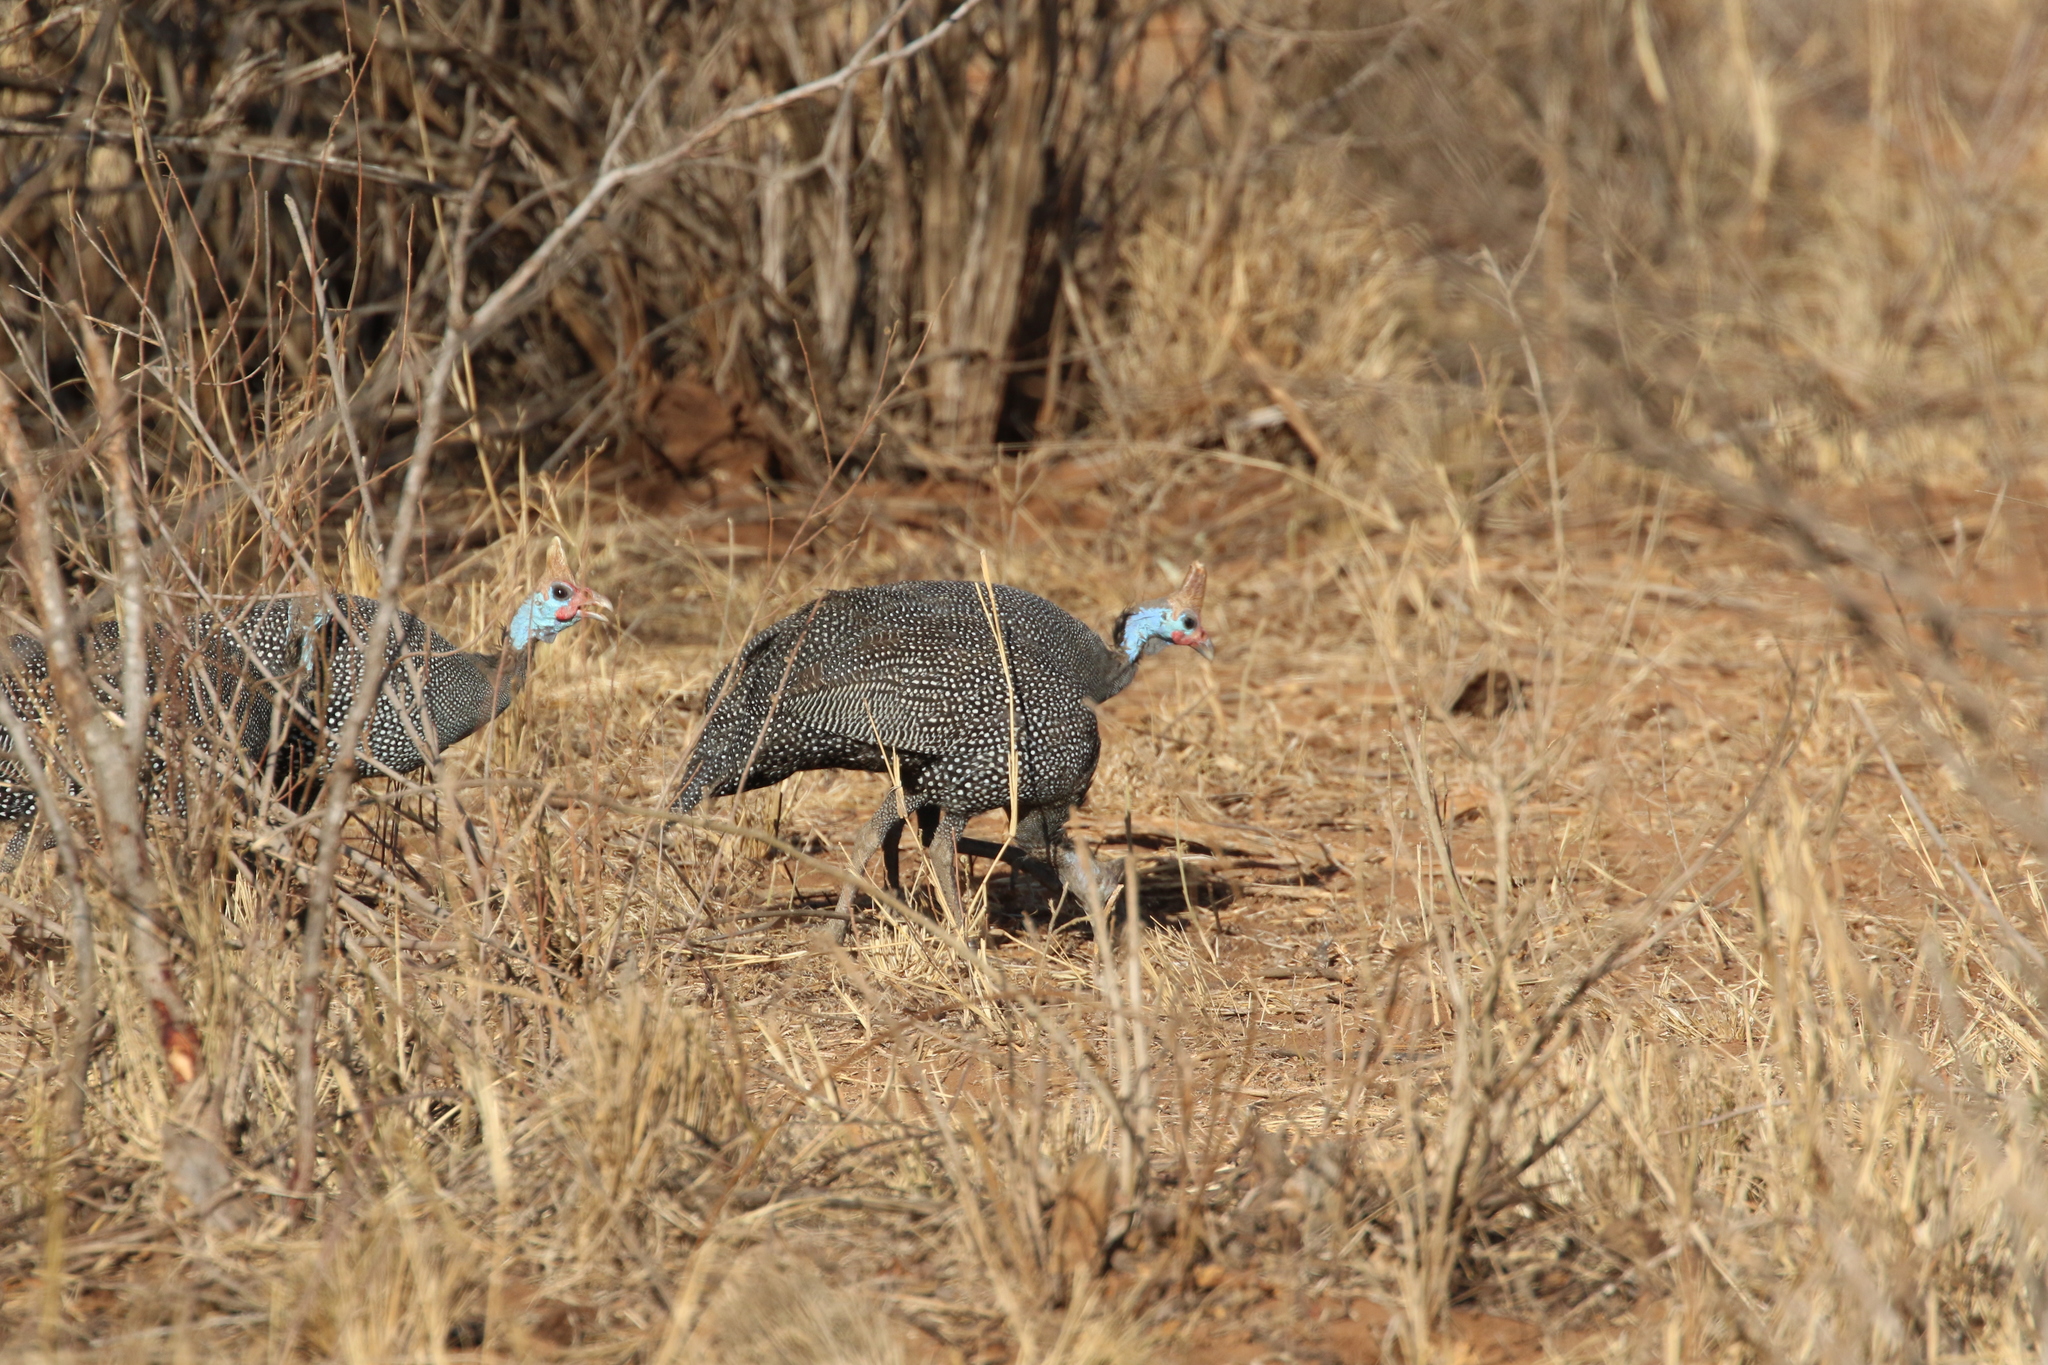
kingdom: Animalia
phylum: Chordata
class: Aves
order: Galliformes
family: Numididae
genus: Numida
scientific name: Numida meleagris
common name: Helmeted guineafowl
